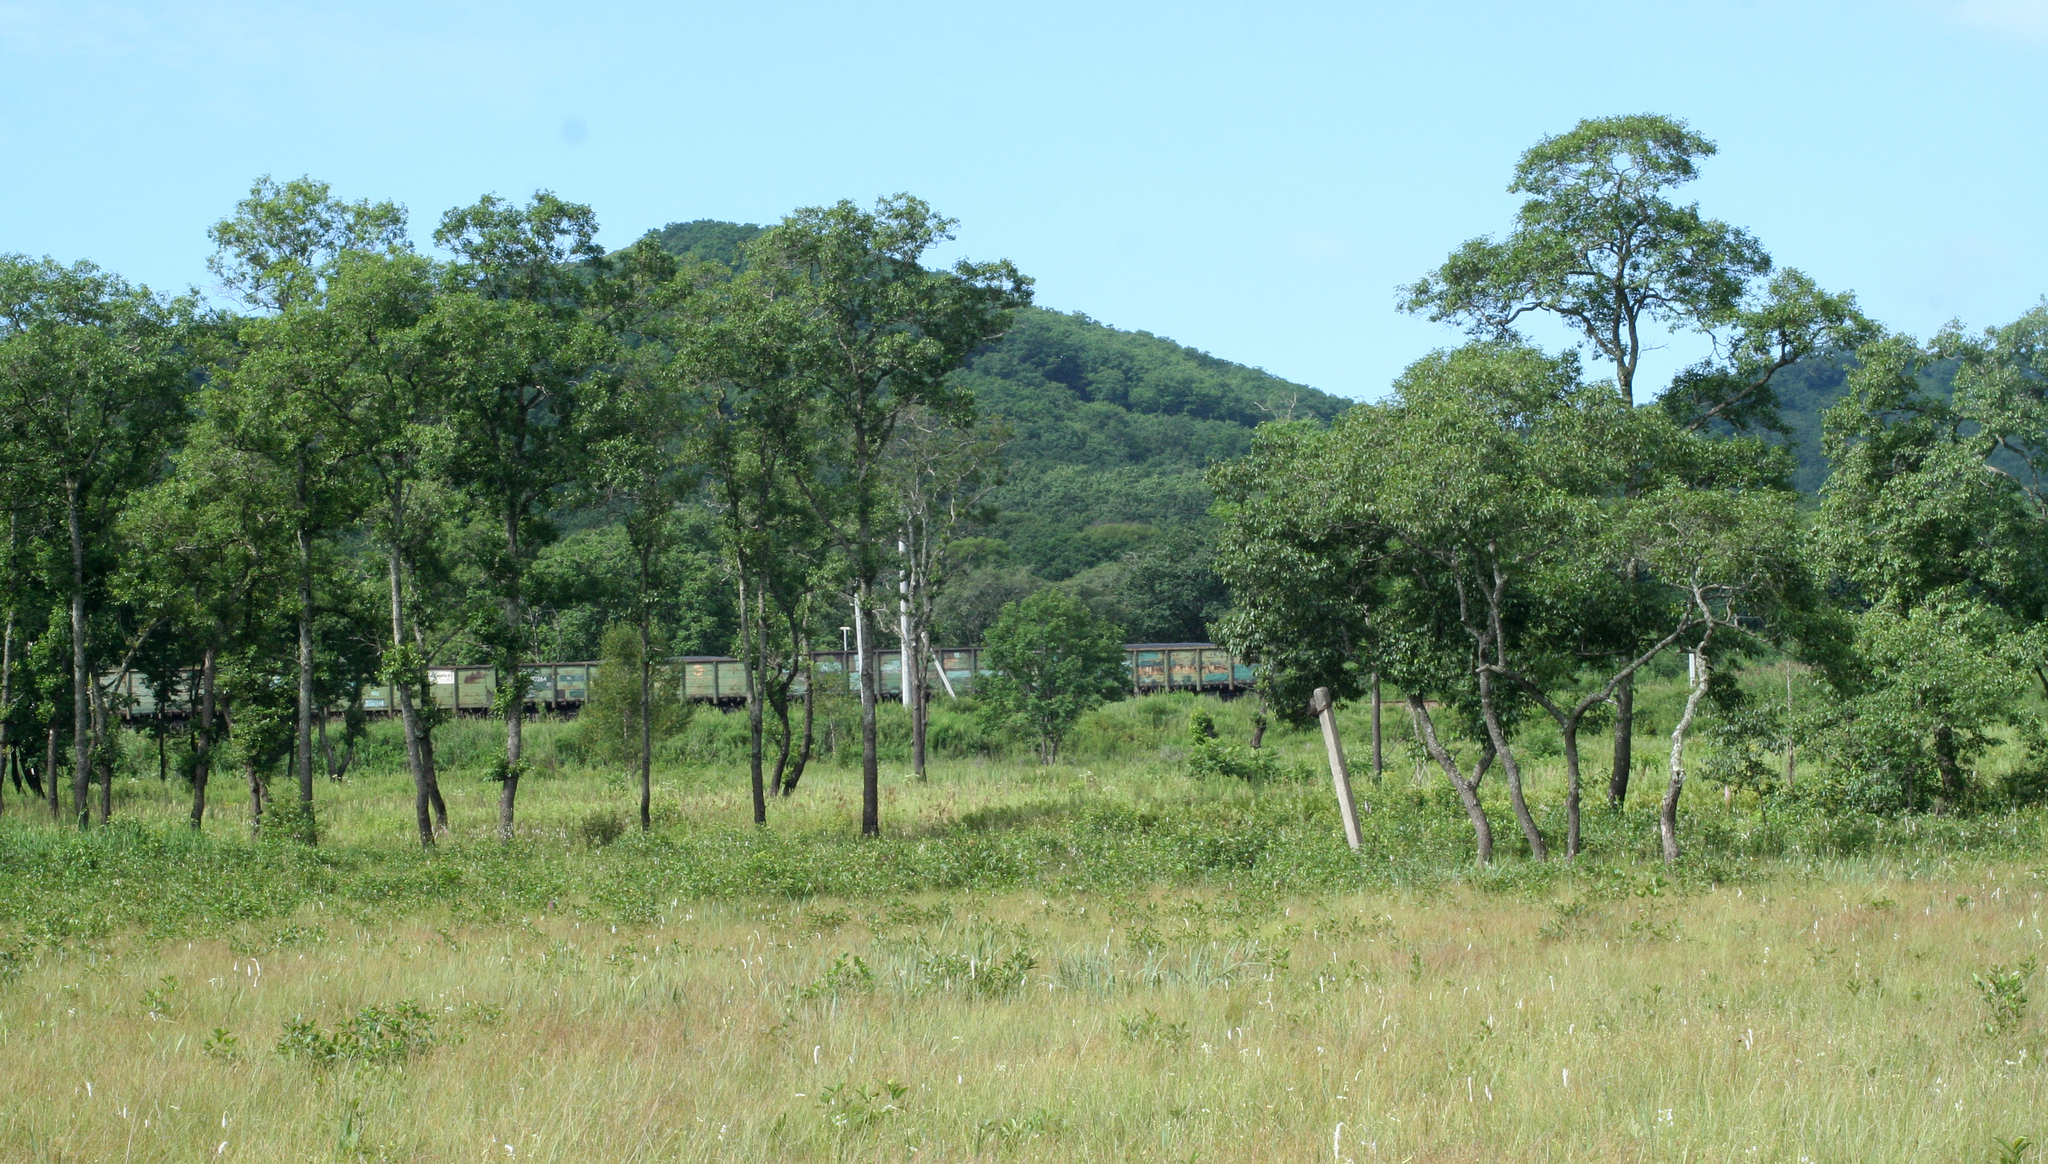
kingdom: Plantae
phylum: Tracheophyta
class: Magnoliopsida
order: Fagales
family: Betulaceae
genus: Alnus
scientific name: Alnus japonica
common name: Japanese alder
